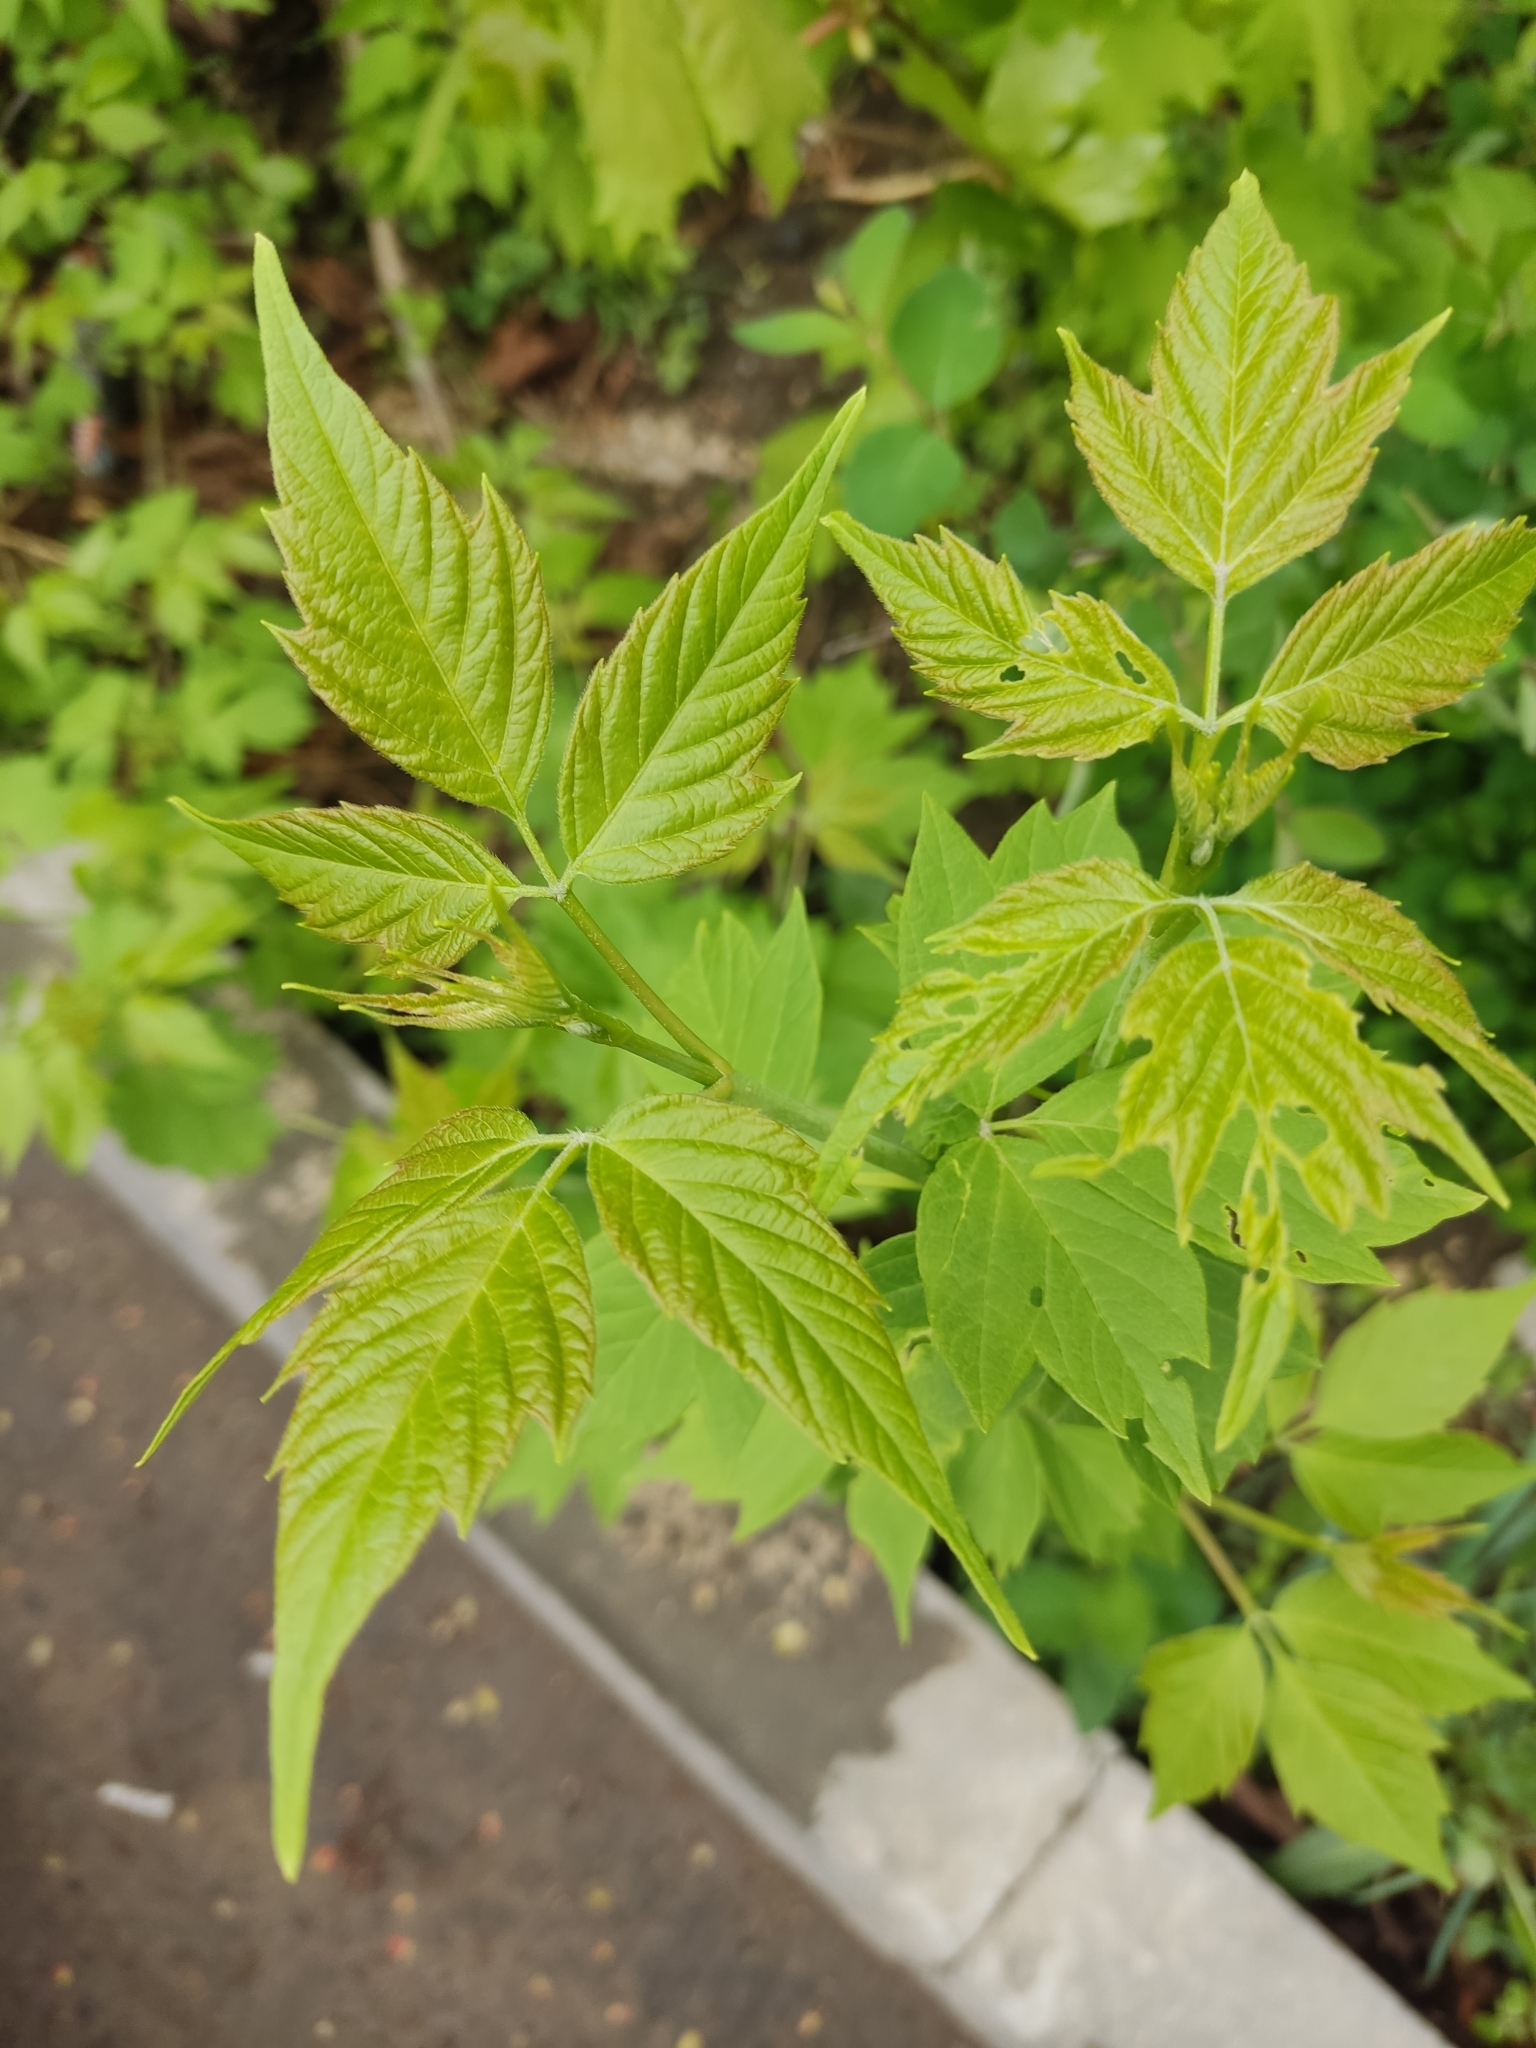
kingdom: Plantae
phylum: Tracheophyta
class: Magnoliopsida
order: Sapindales
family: Sapindaceae
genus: Acer
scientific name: Acer negundo
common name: Ashleaf maple
